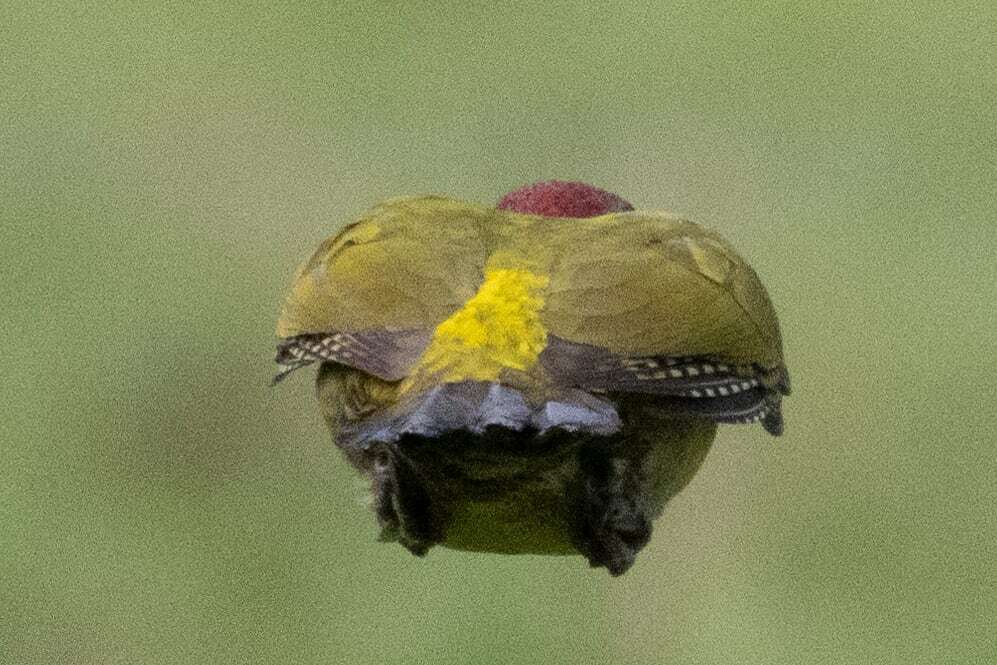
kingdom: Animalia
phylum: Chordata
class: Aves
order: Piciformes
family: Picidae
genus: Picus
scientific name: Picus viridis
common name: European green woodpecker
